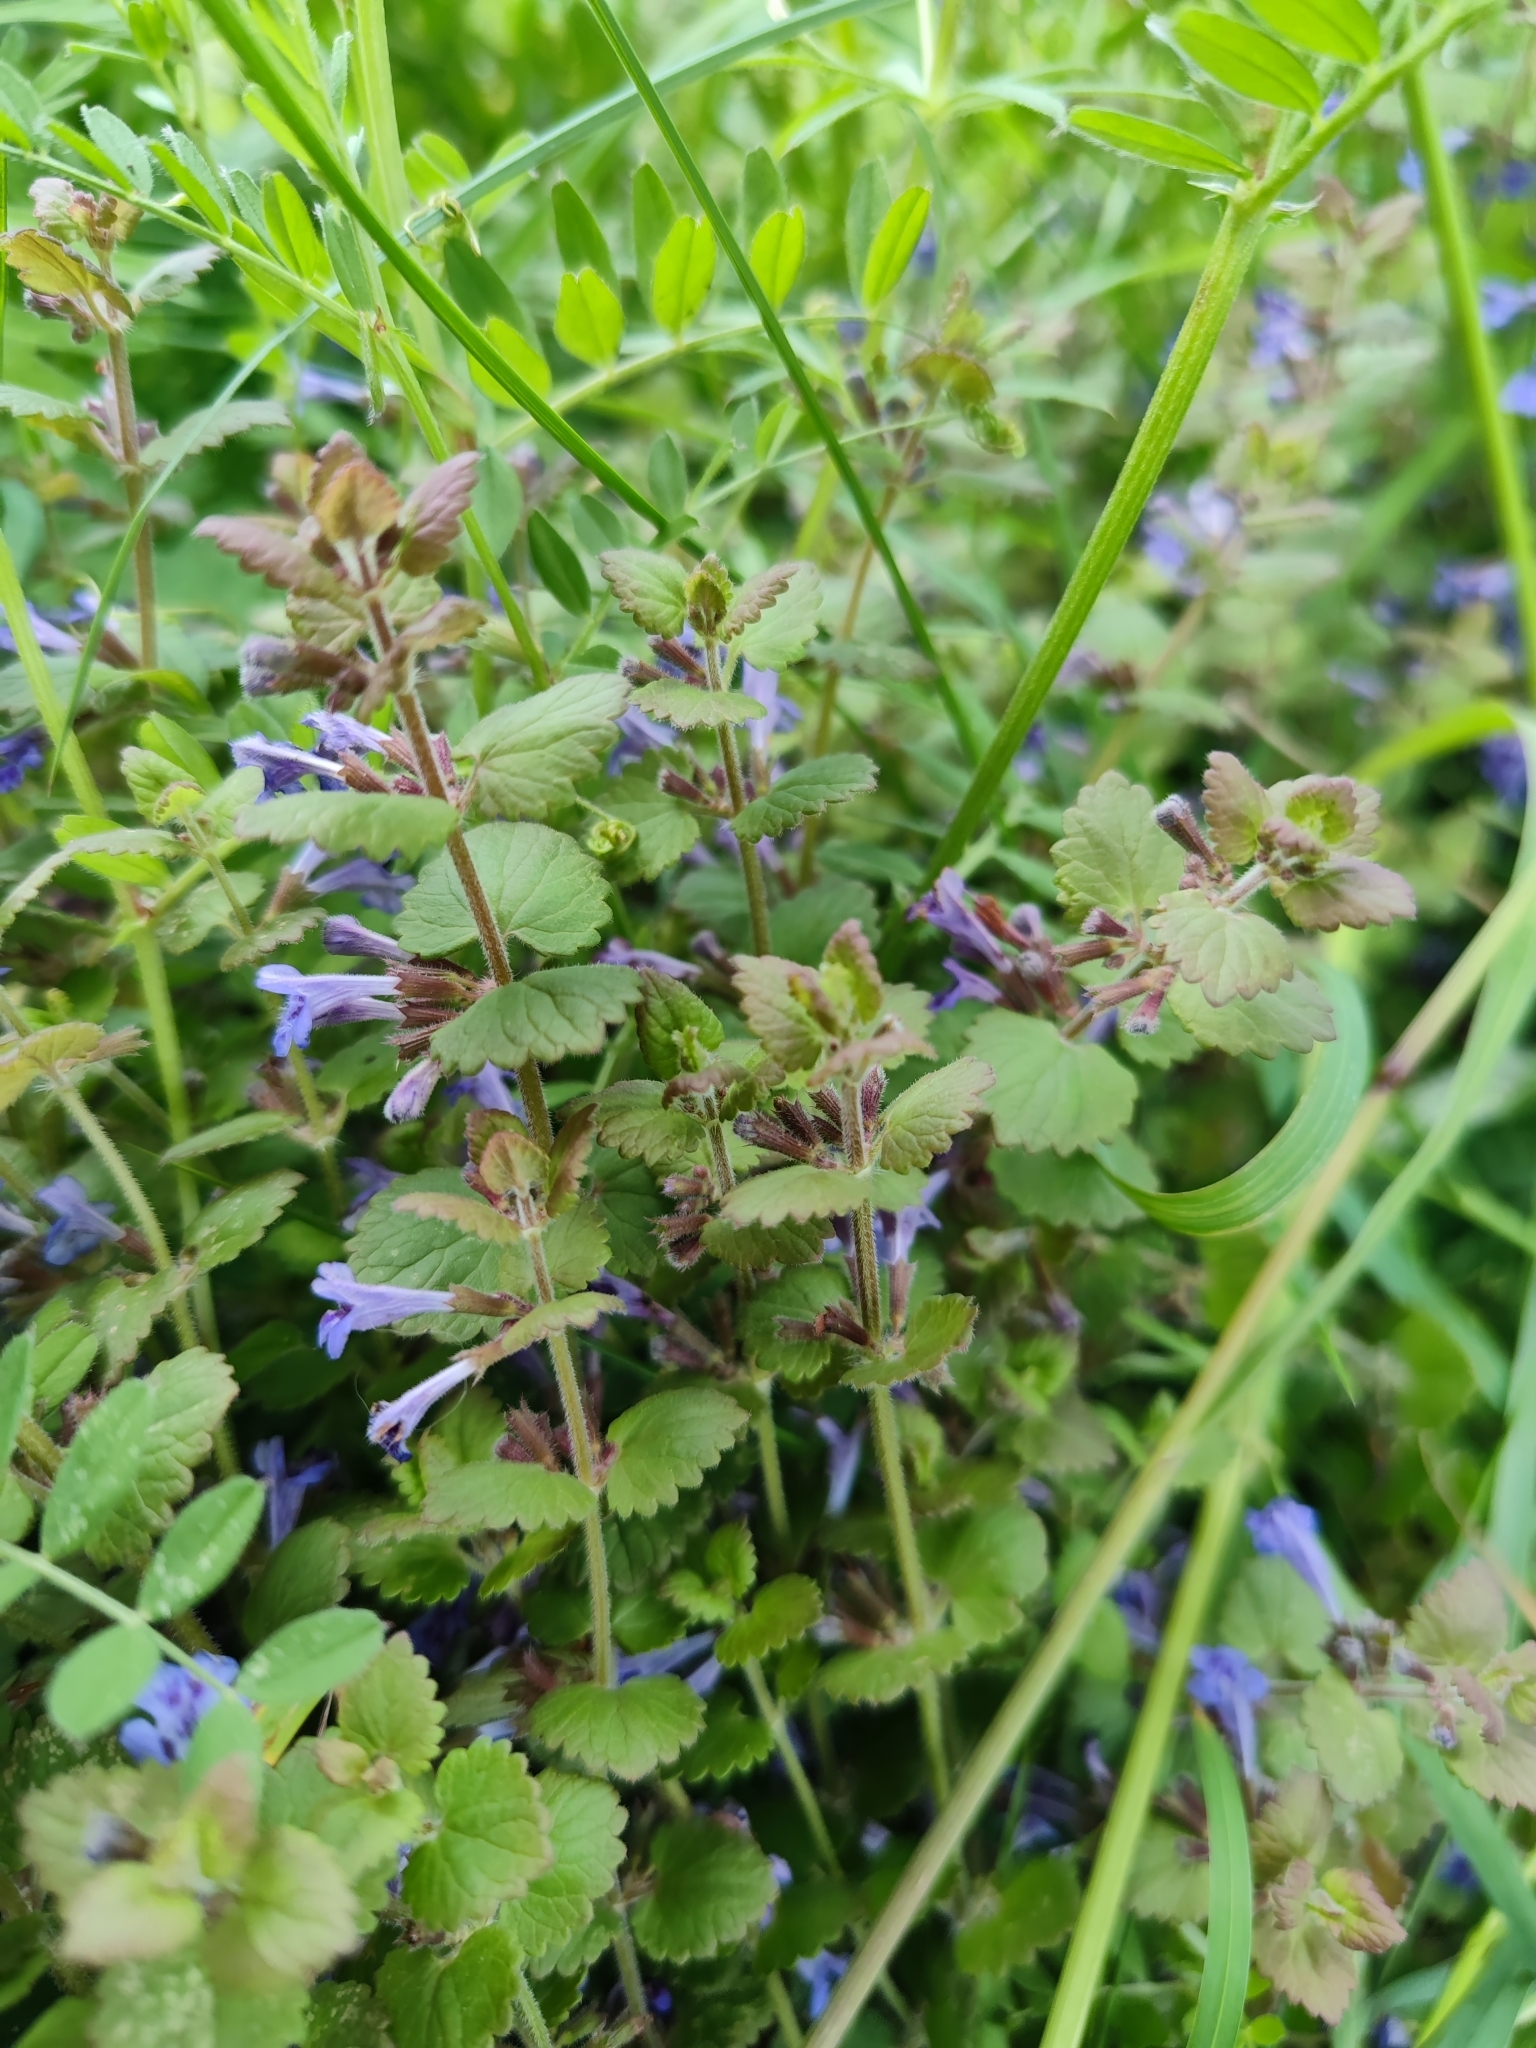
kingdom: Plantae
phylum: Tracheophyta
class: Magnoliopsida
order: Lamiales
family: Lamiaceae
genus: Glechoma
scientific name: Glechoma hederacea
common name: Ground ivy
